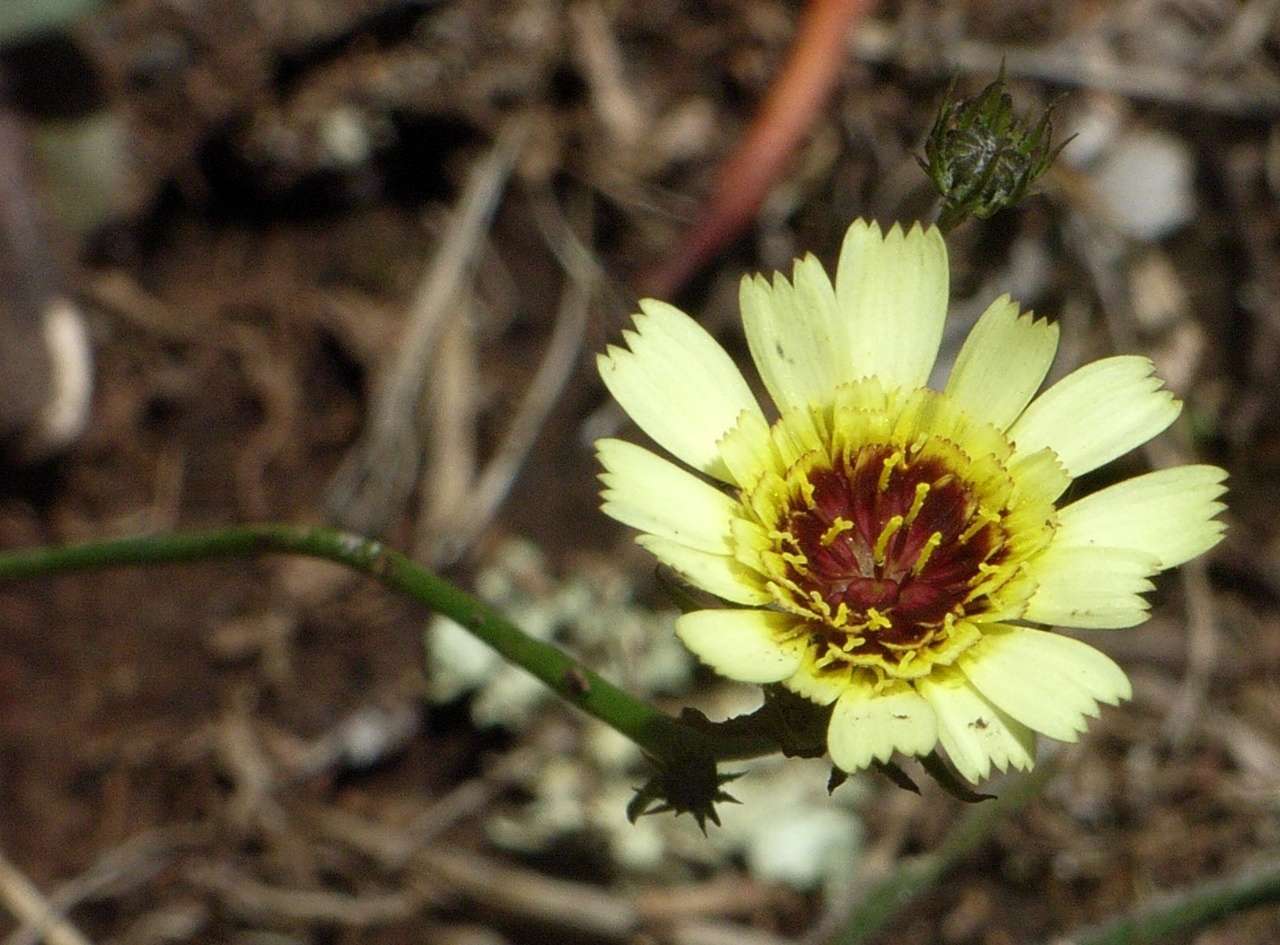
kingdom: Plantae
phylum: Tracheophyta
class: Magnoliopsida
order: Asterales
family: Asteraceae
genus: Tolpis
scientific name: Tolpis barbata
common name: Yellow hawkweed
